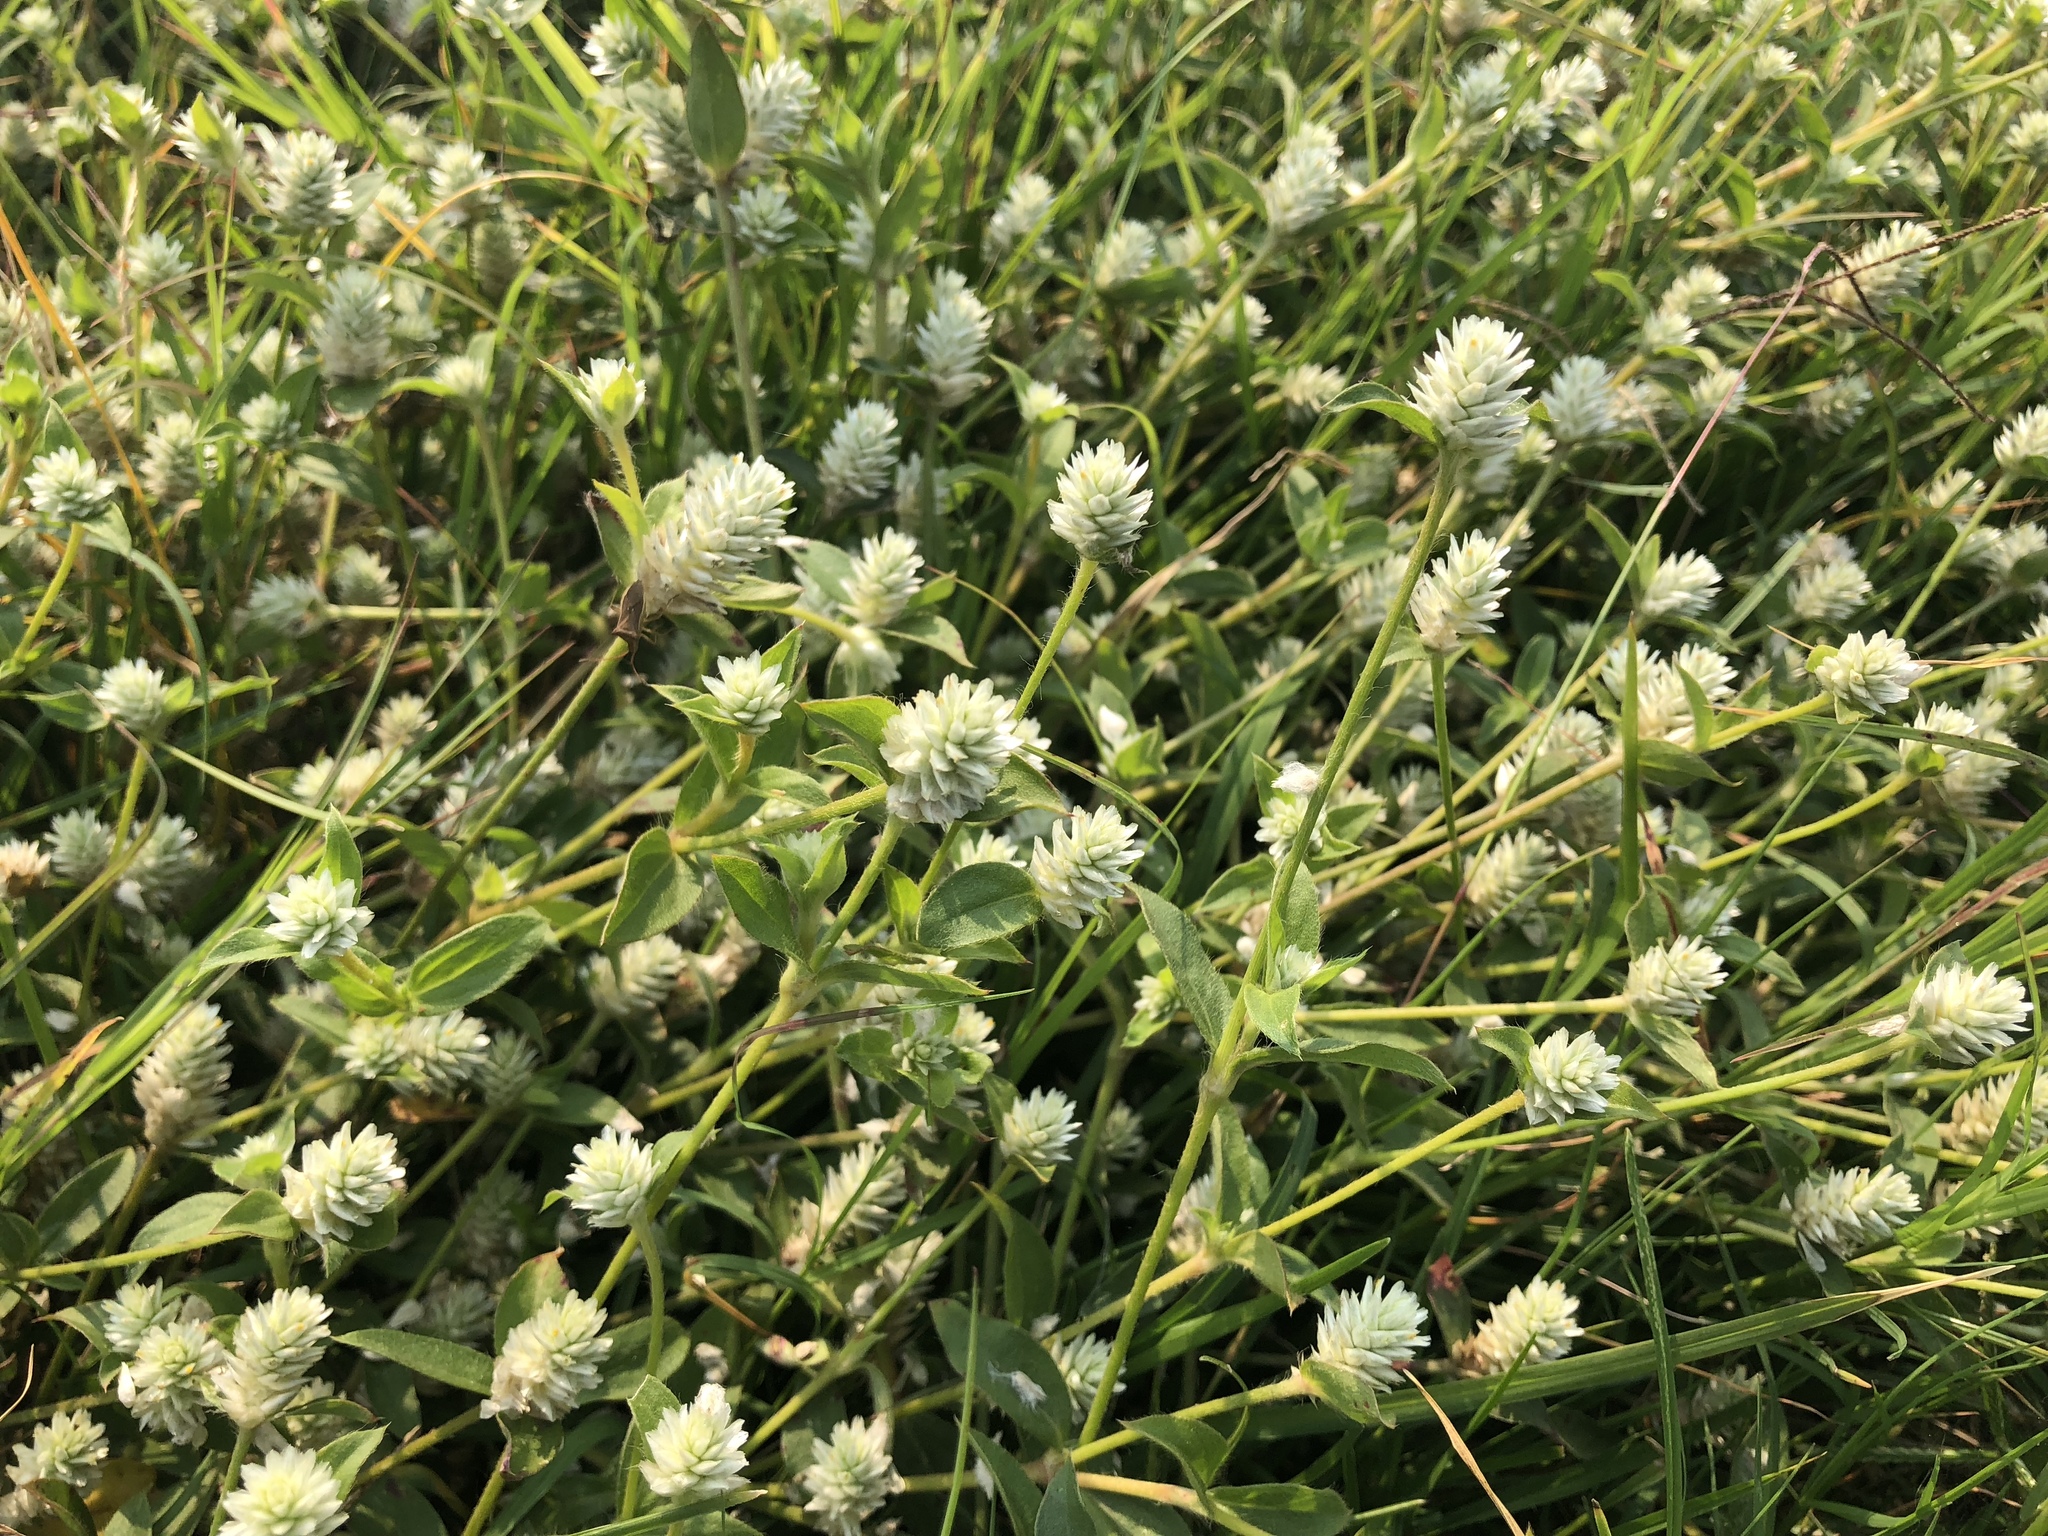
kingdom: Plantae
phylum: Tracheophyta
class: Magnoliopsida
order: Caryophyllales
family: Amaranthaceae
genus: Gomphrena
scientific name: Gomphrena serrata
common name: Arrasa con todo
